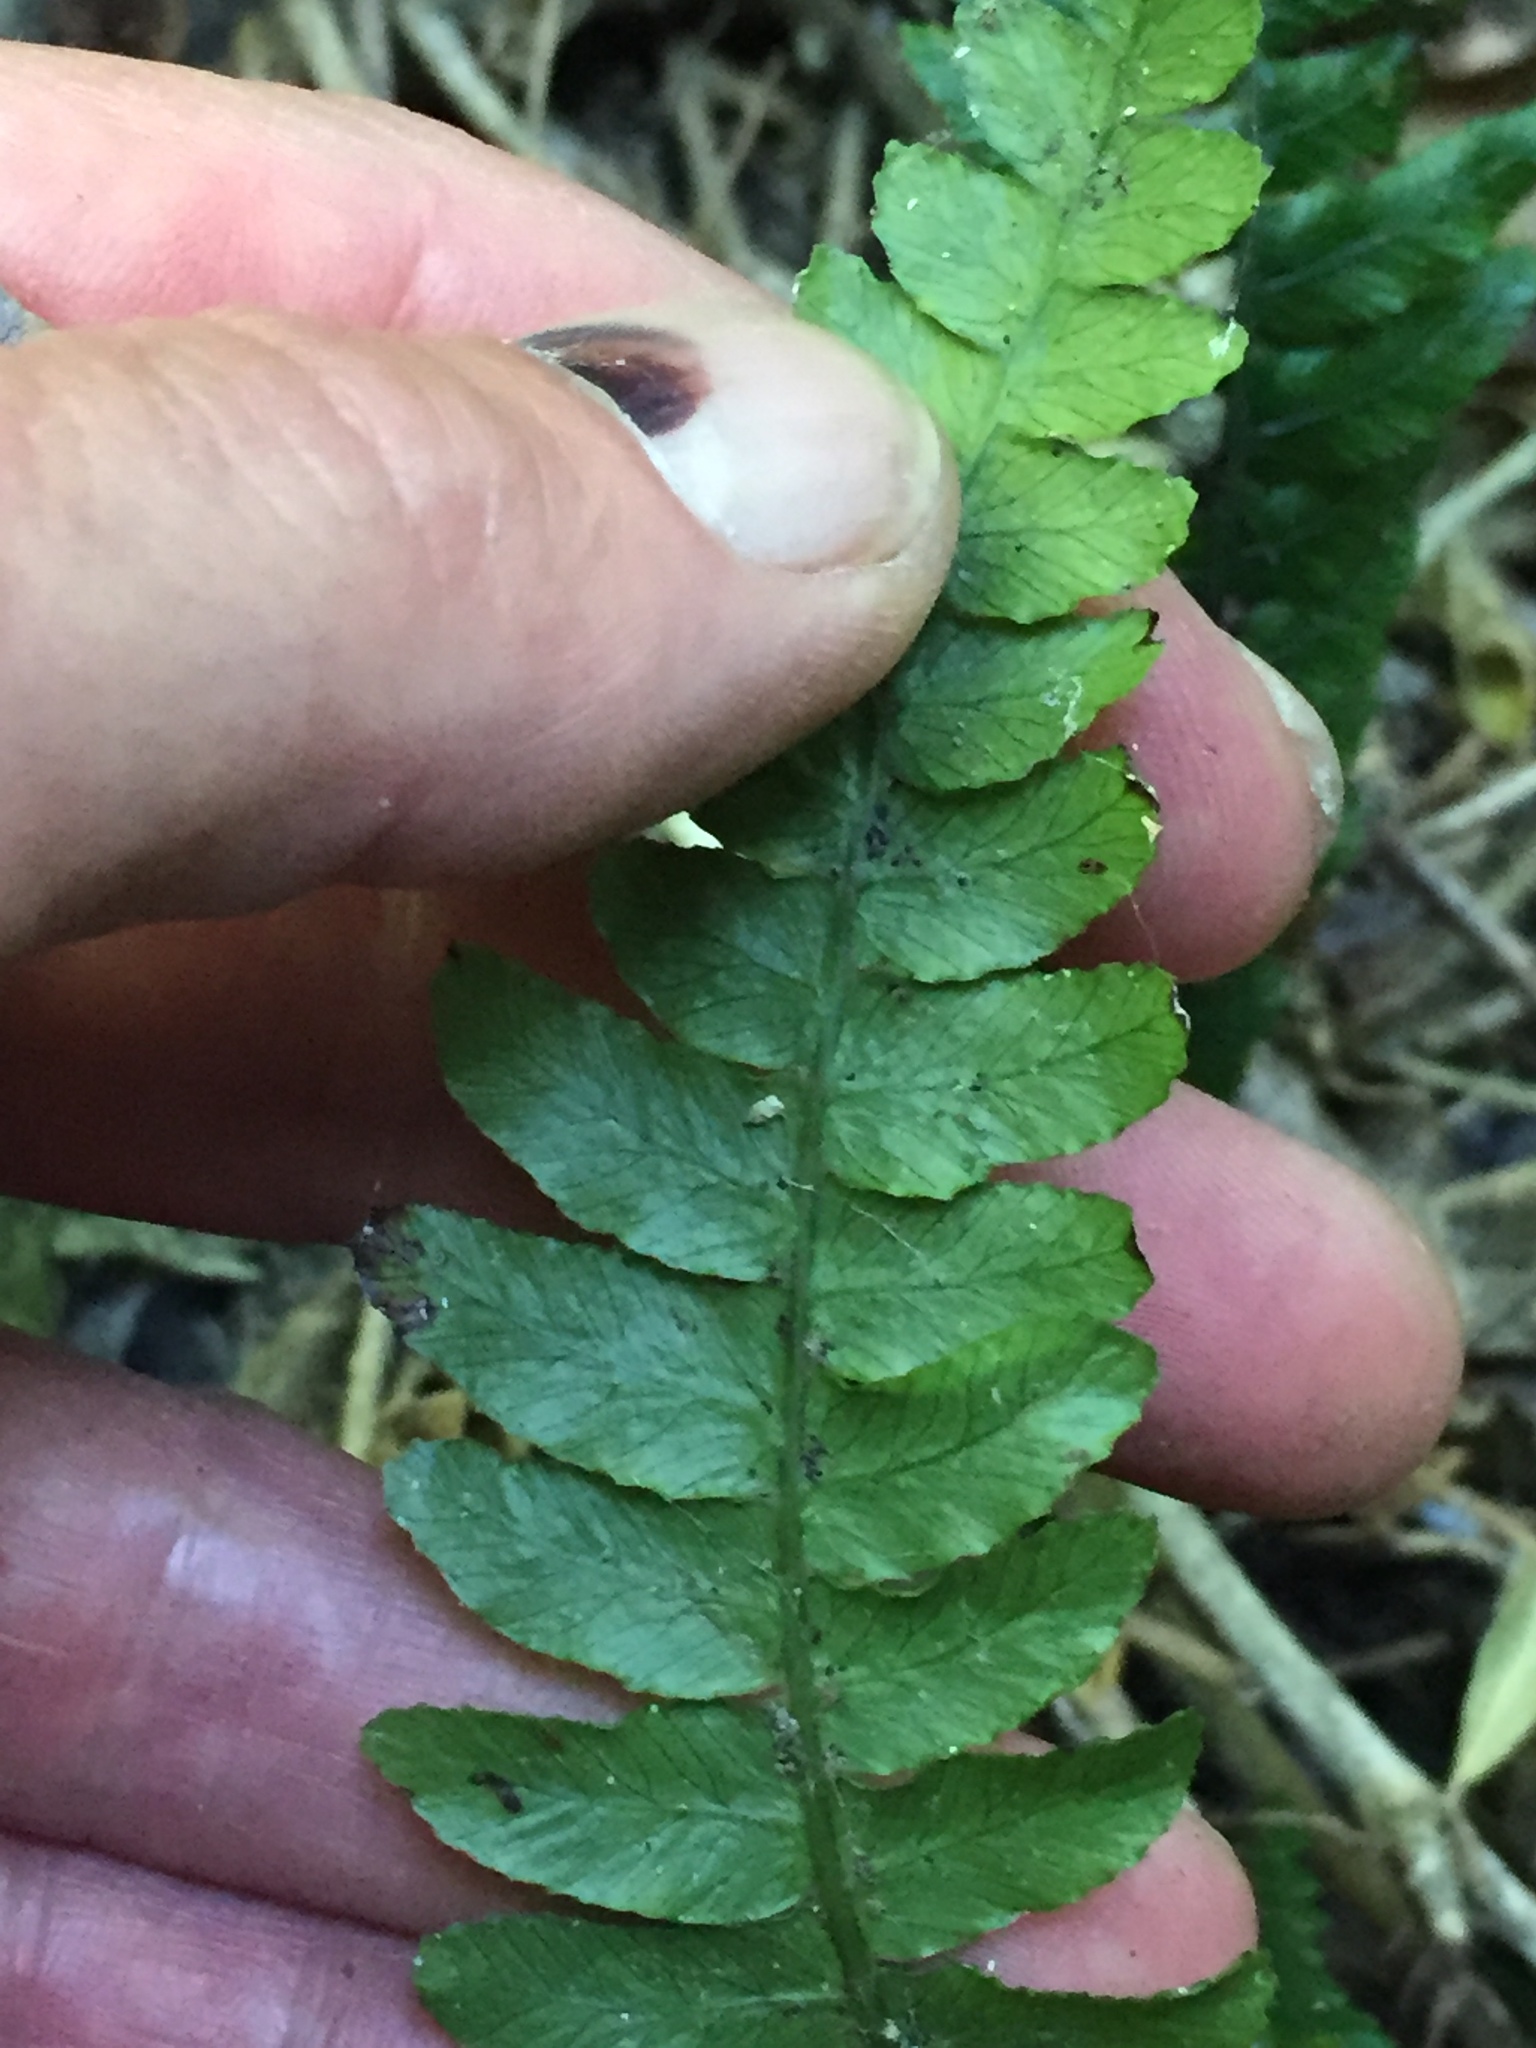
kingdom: Plantae
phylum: Tracheophyta
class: Polypodiopsida
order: Polypodiales
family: Blechnaceae
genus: Austroblechnum
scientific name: Austroblechnum lanceolatum
